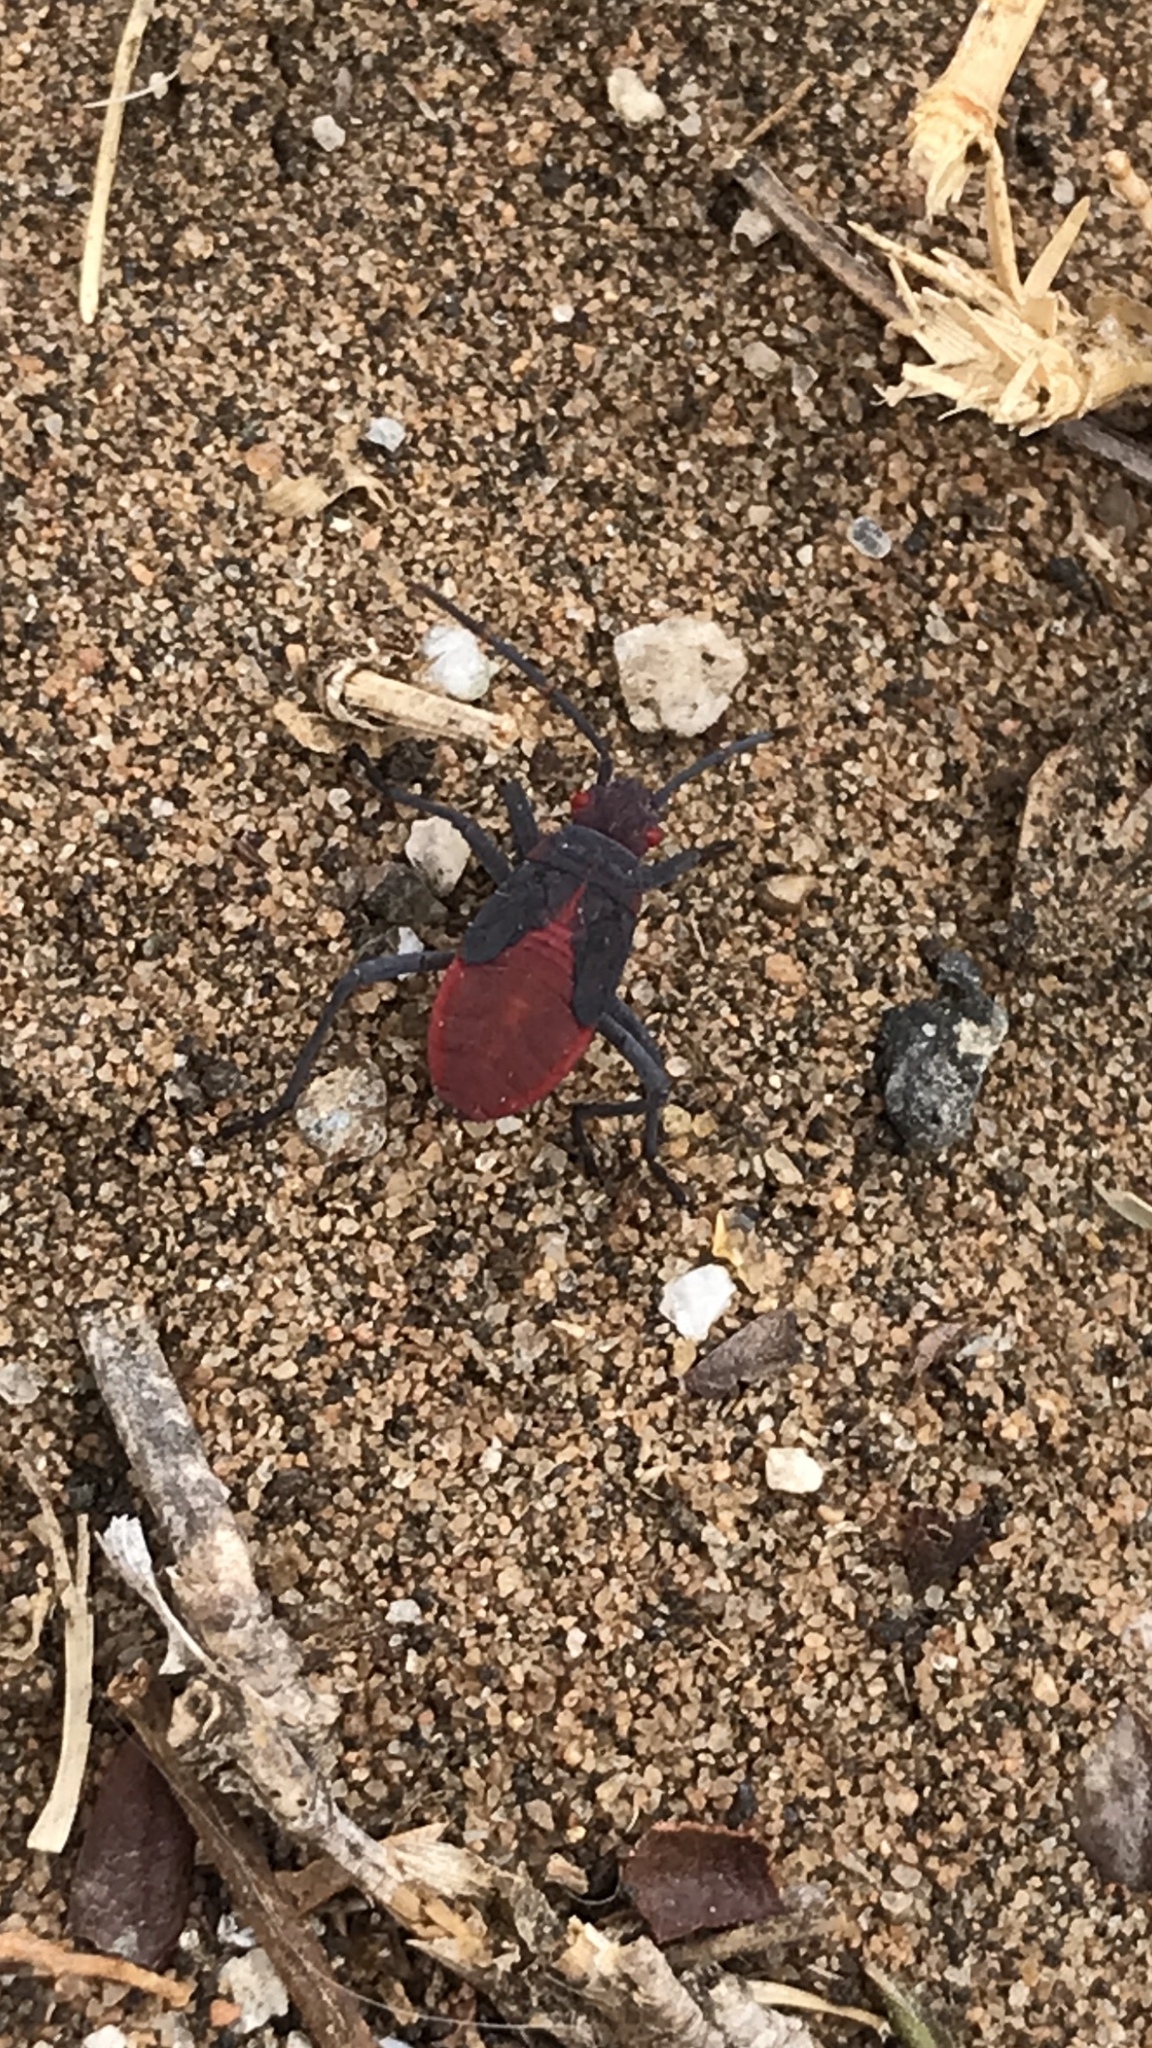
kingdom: Animalia
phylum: Arthropoda
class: Insecta
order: Hemiptera
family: Rhopalidae
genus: Jadera
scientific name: Jadera haematoloma
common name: Red-shouldered bug
